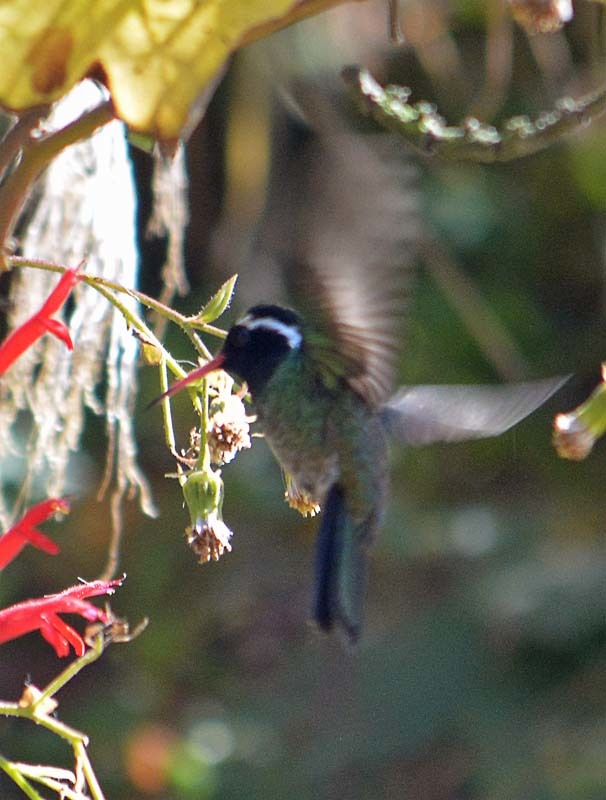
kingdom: Animalia
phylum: Chordata
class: Aves
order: Apodiformes
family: Trochilidae
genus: Basilinna
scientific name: Basilinna leucotis
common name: White-eared hummingbird
